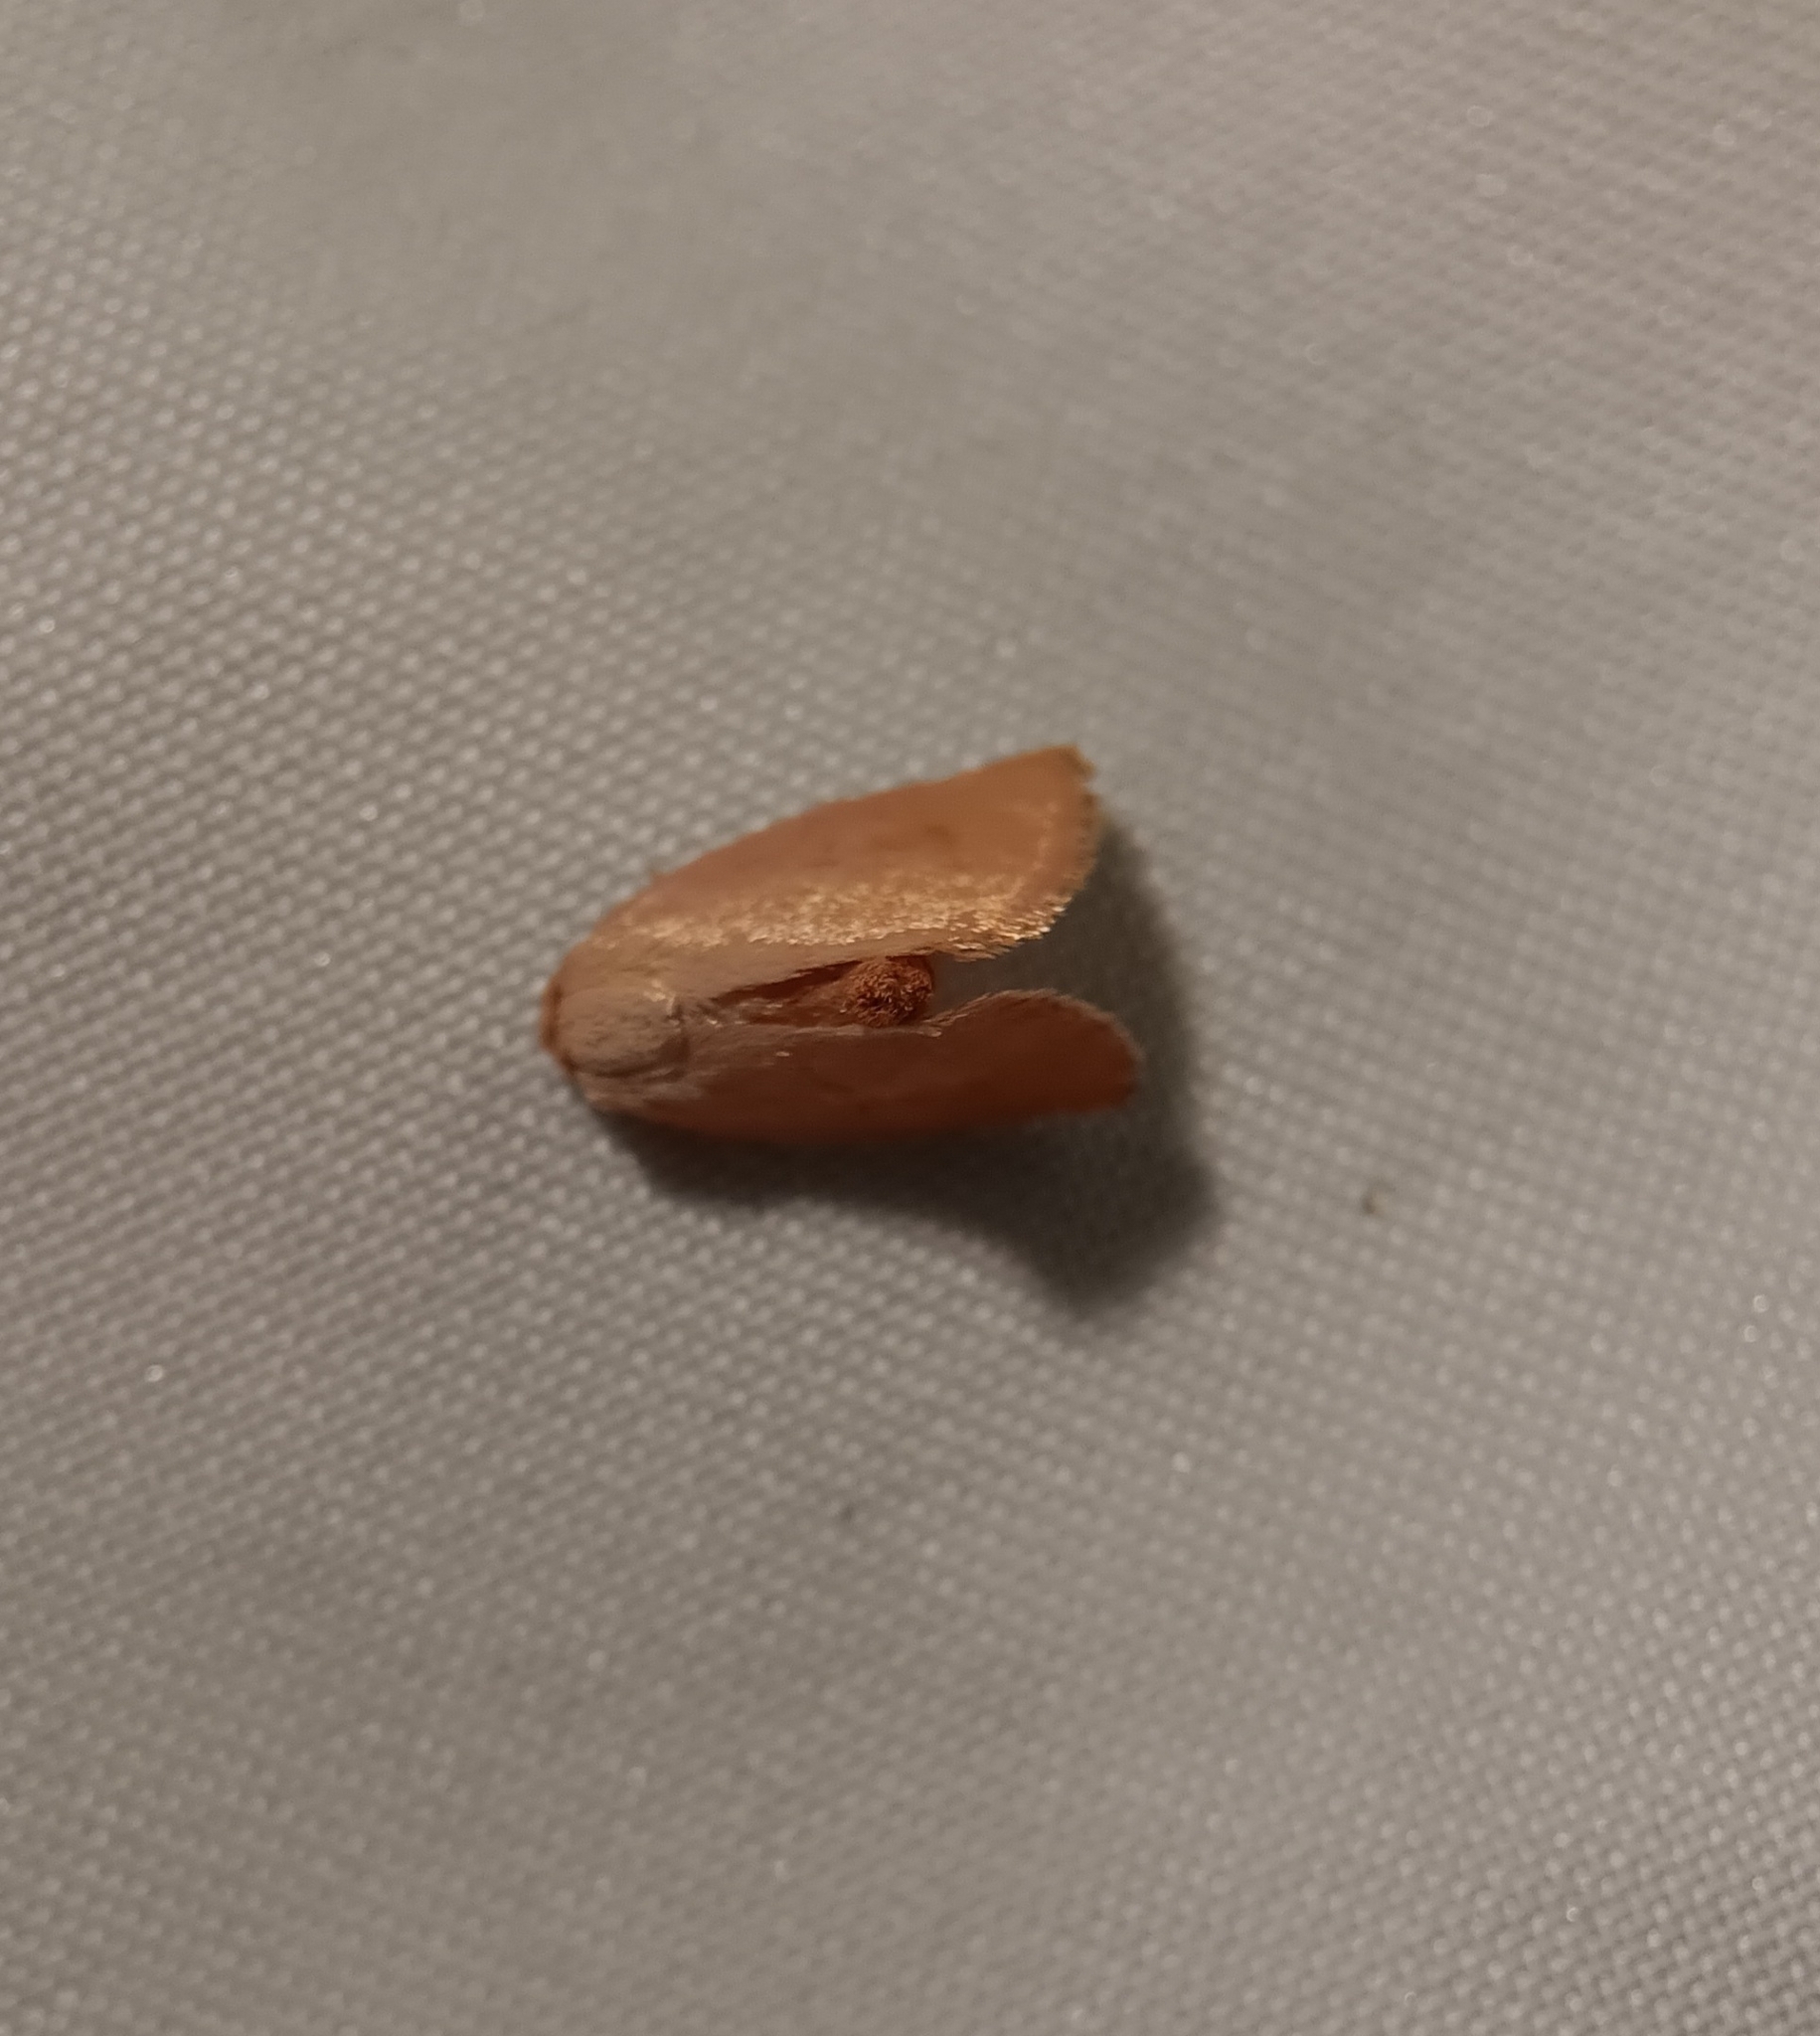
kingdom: Animalia
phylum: Arthropoda
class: Insecta
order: Lepidoptera
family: Limacodidae
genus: Tortricidia
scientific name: Tortricidia pallida
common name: Red-crossed button slug moth
